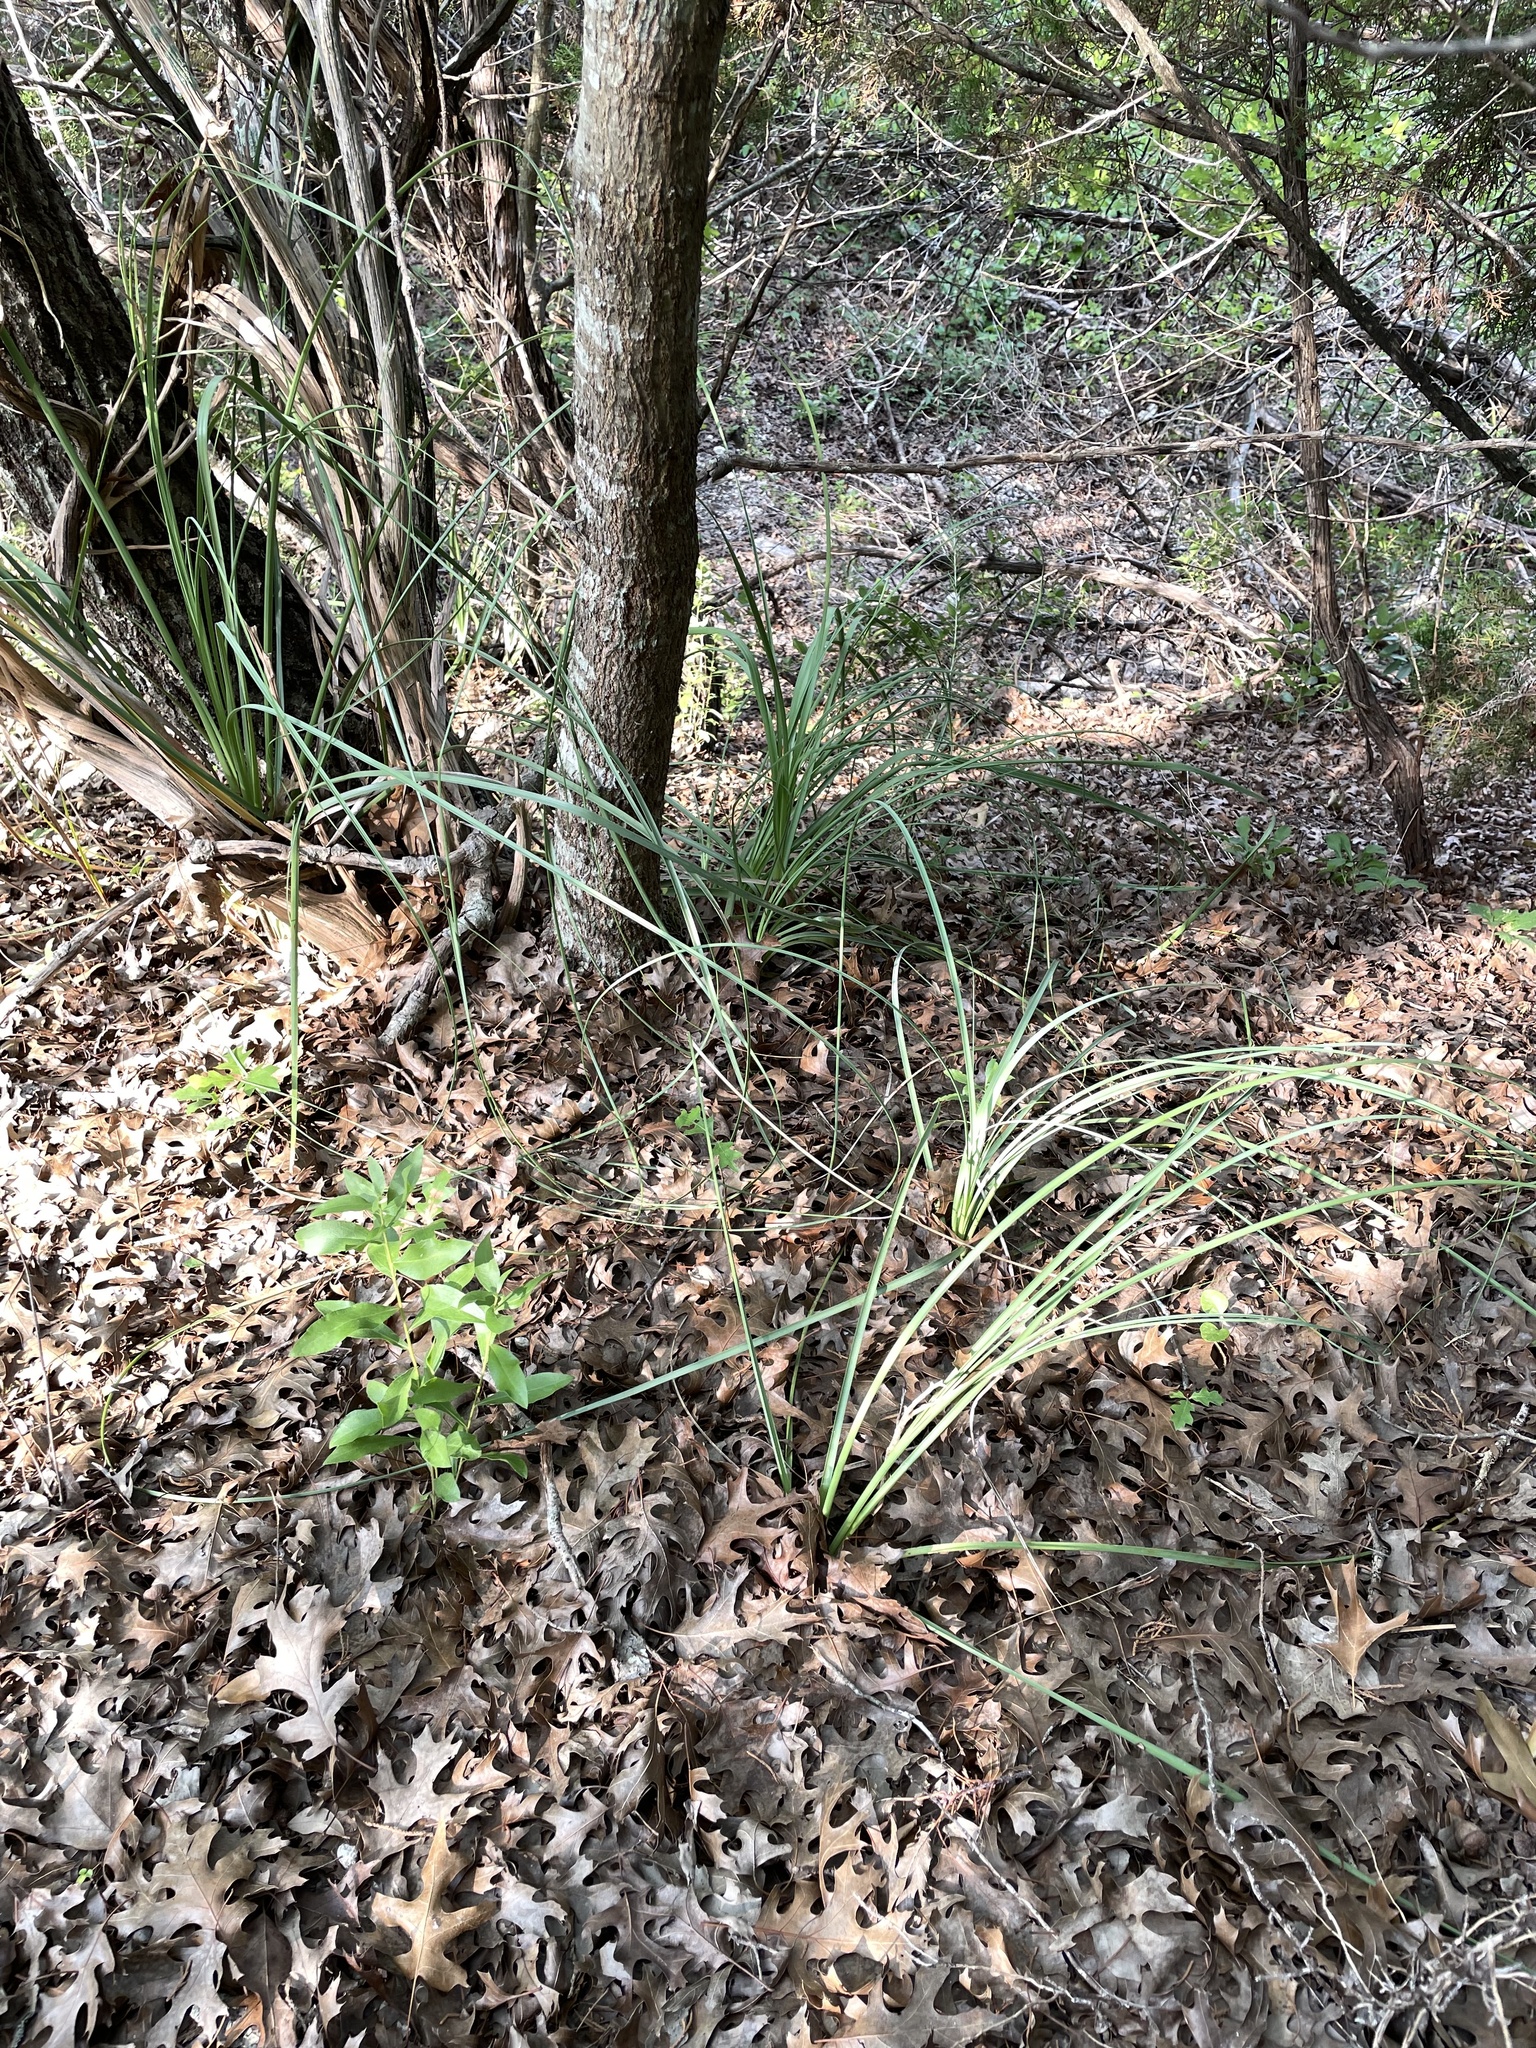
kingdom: Plantae
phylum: Tracheophyta
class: Liliopsida
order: Asparagales
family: Asparagaceae
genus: Nolina
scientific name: Nolina lindheimeriana
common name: Lindheimer's bear-grass
